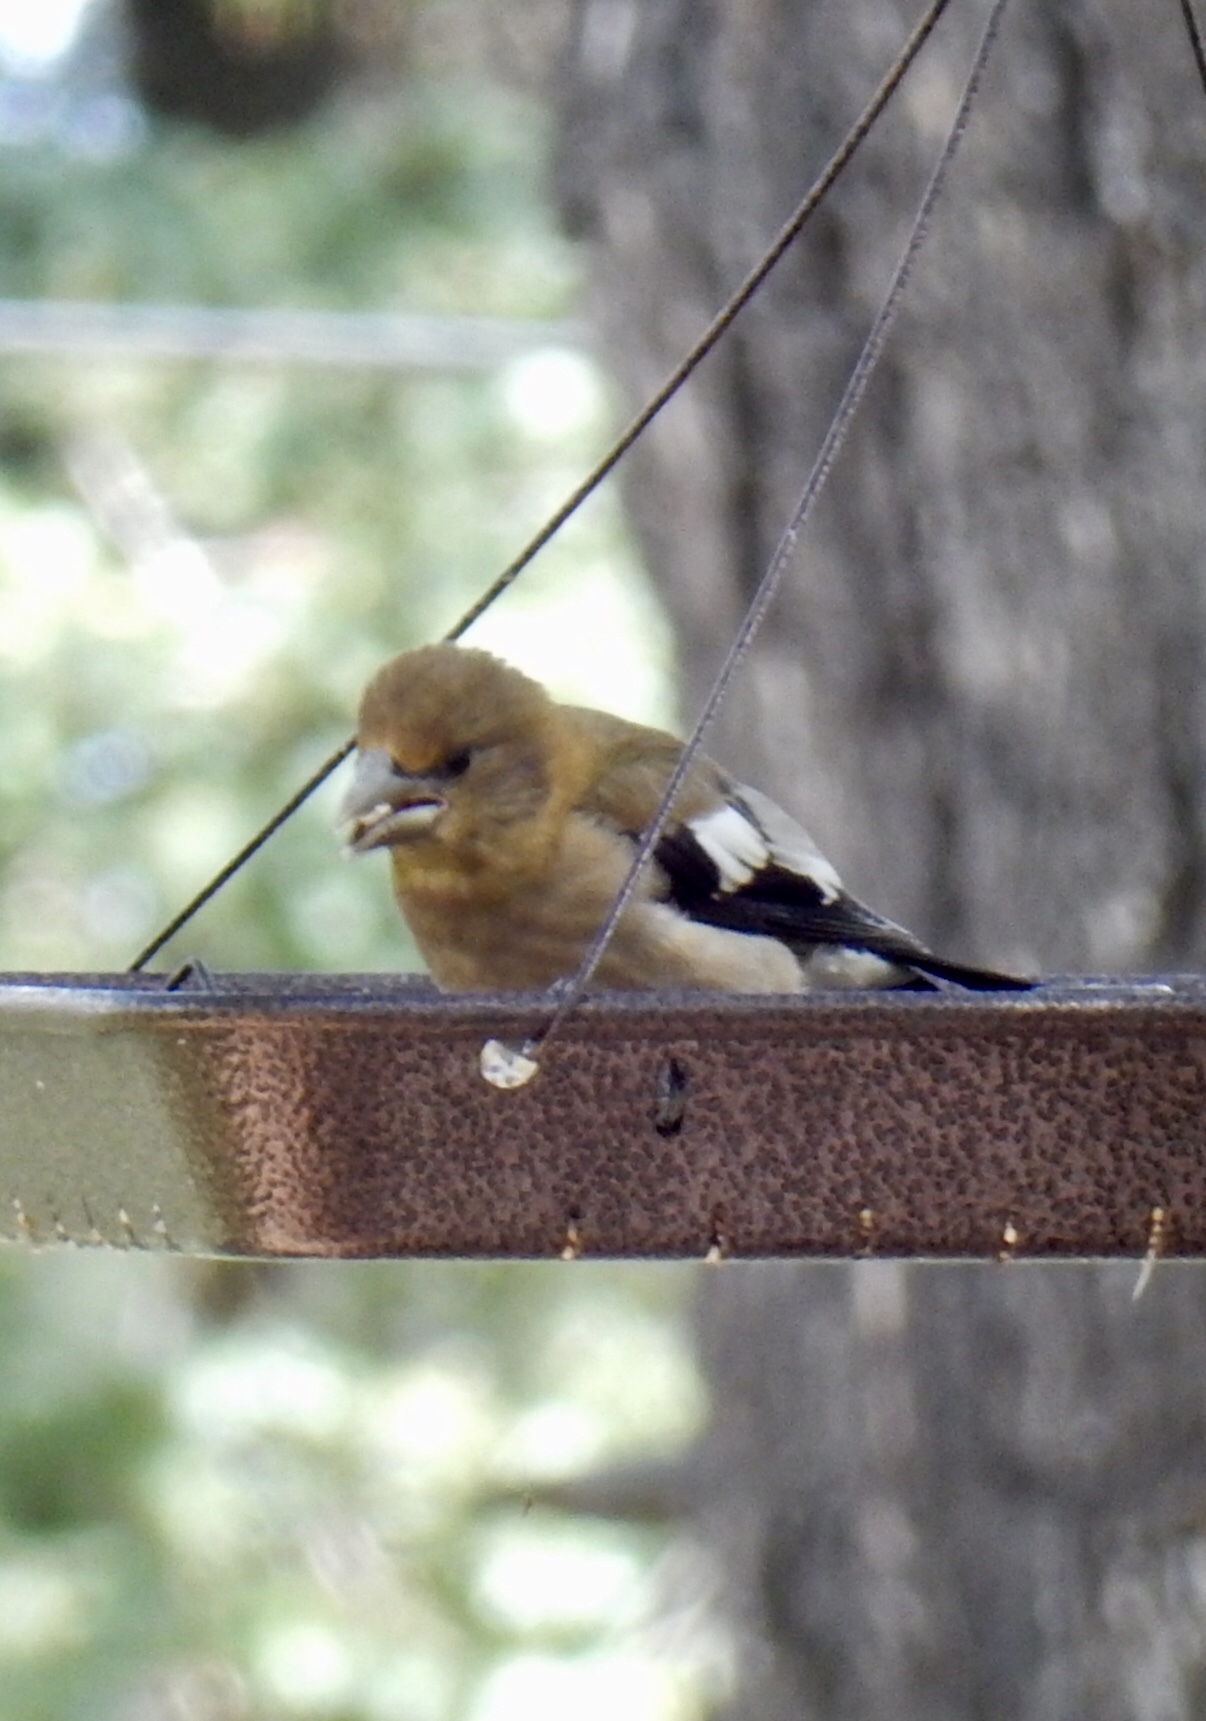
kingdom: Animalia
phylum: Chordata
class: Aves
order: Passeriformes
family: Fringillidae
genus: Hesperiphona
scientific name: Hesperiphona vespertina
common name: Evening grosbeak
